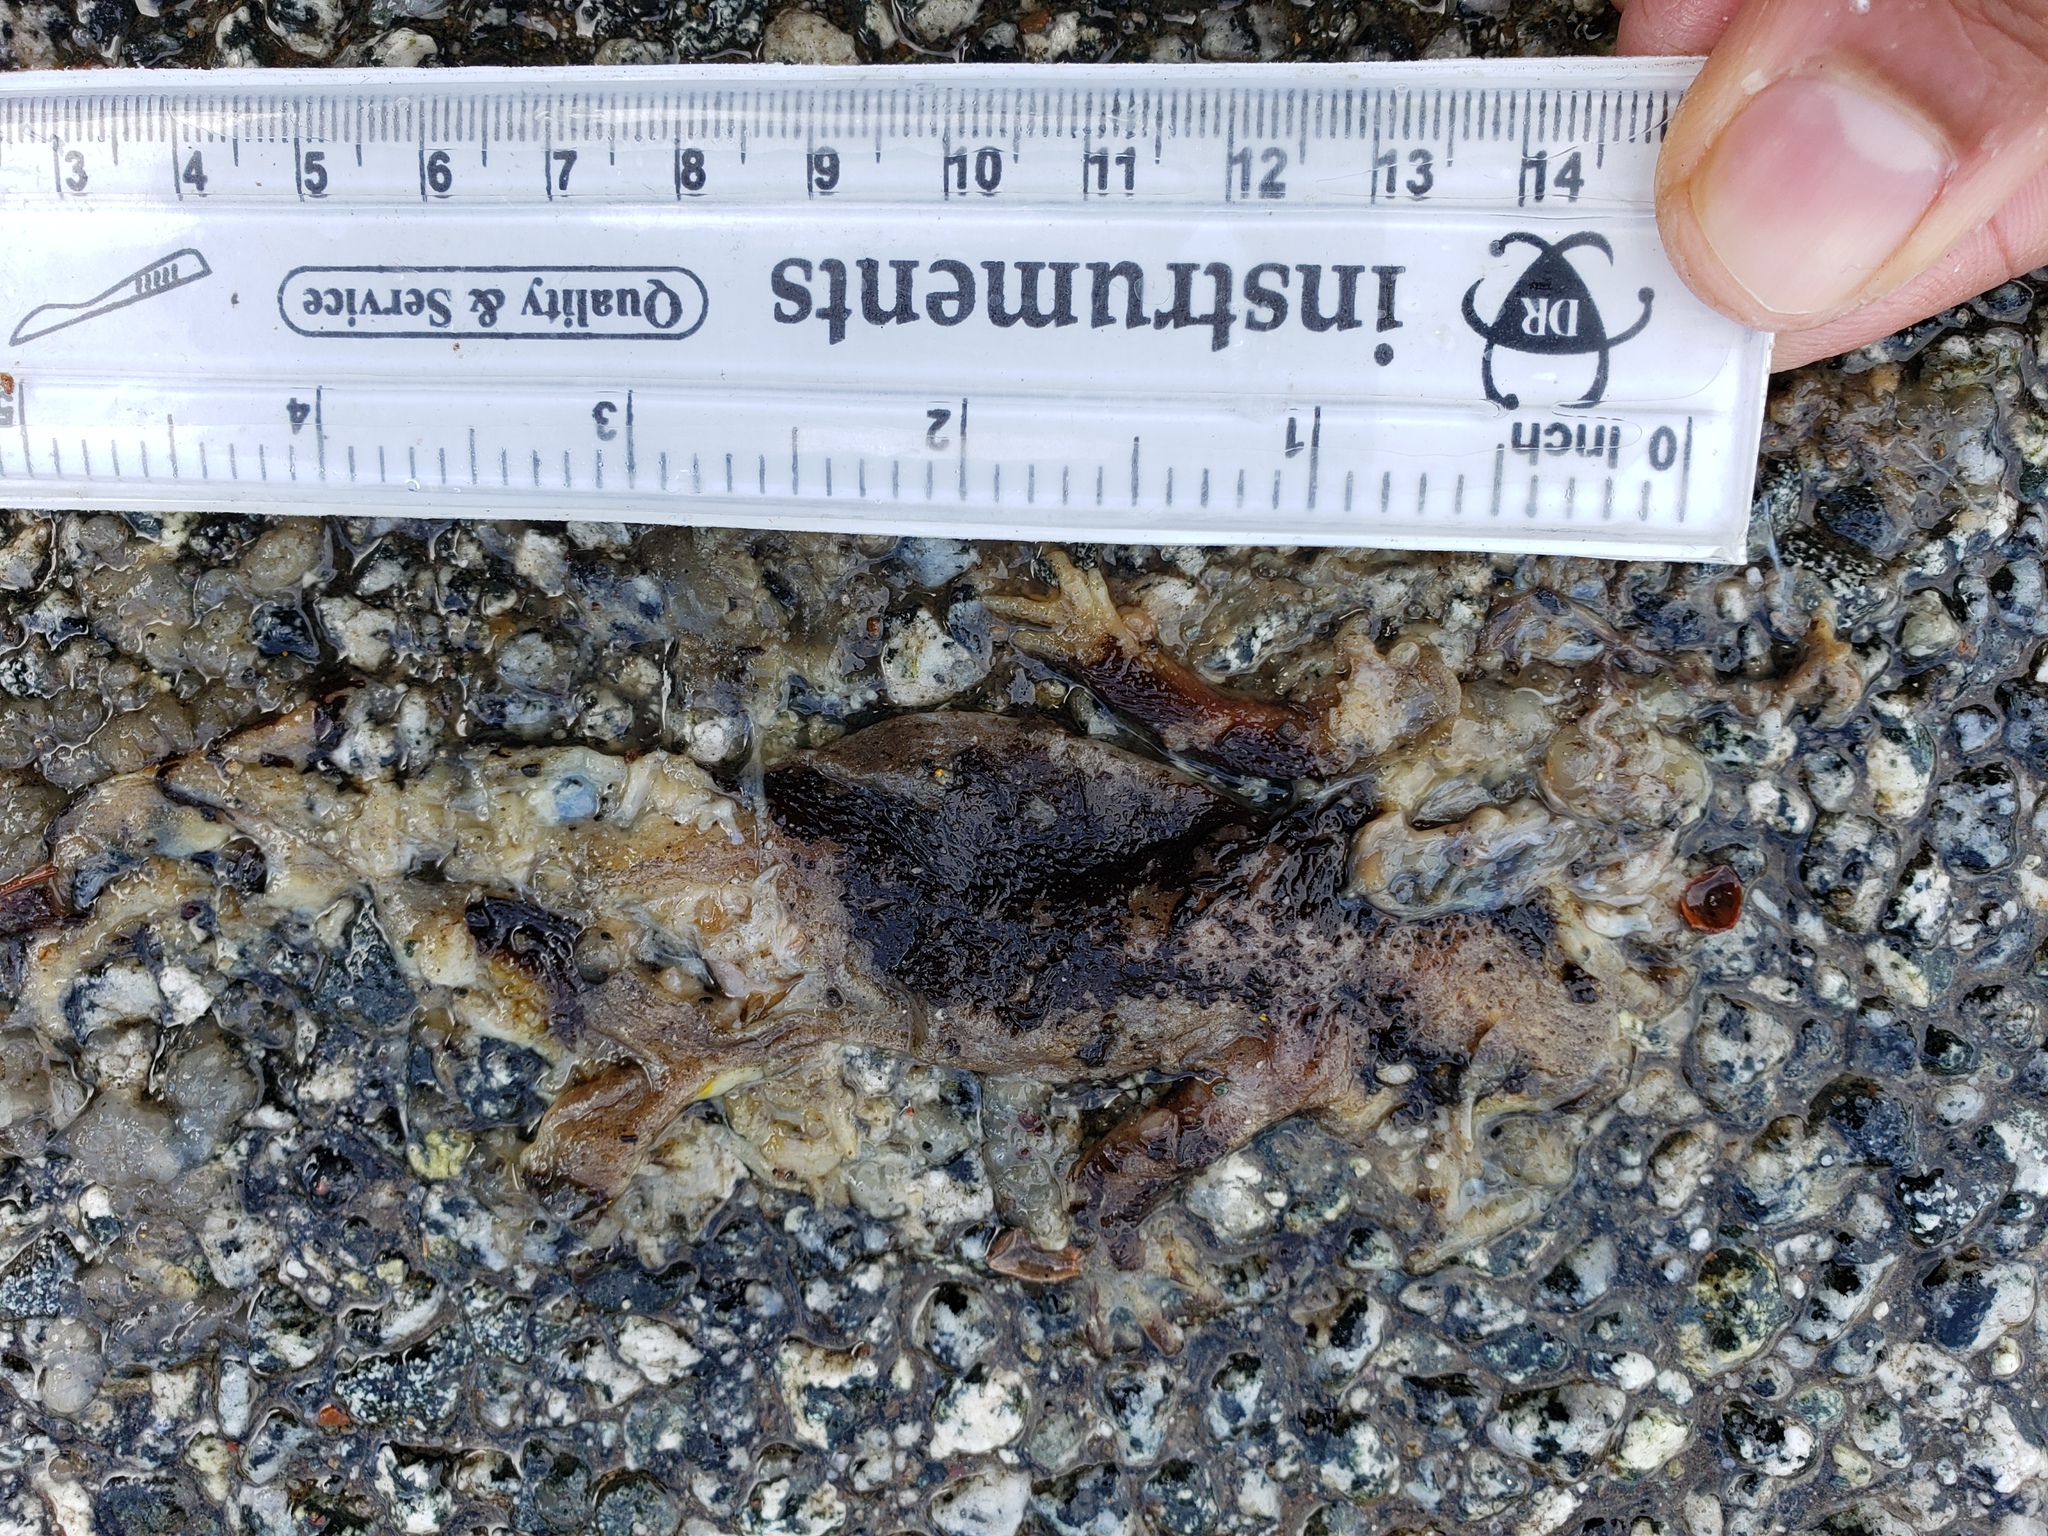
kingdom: Animalia
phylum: Chordata
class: Amphibia
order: Caudata
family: Salamandridae
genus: Taricha
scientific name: Taricha
